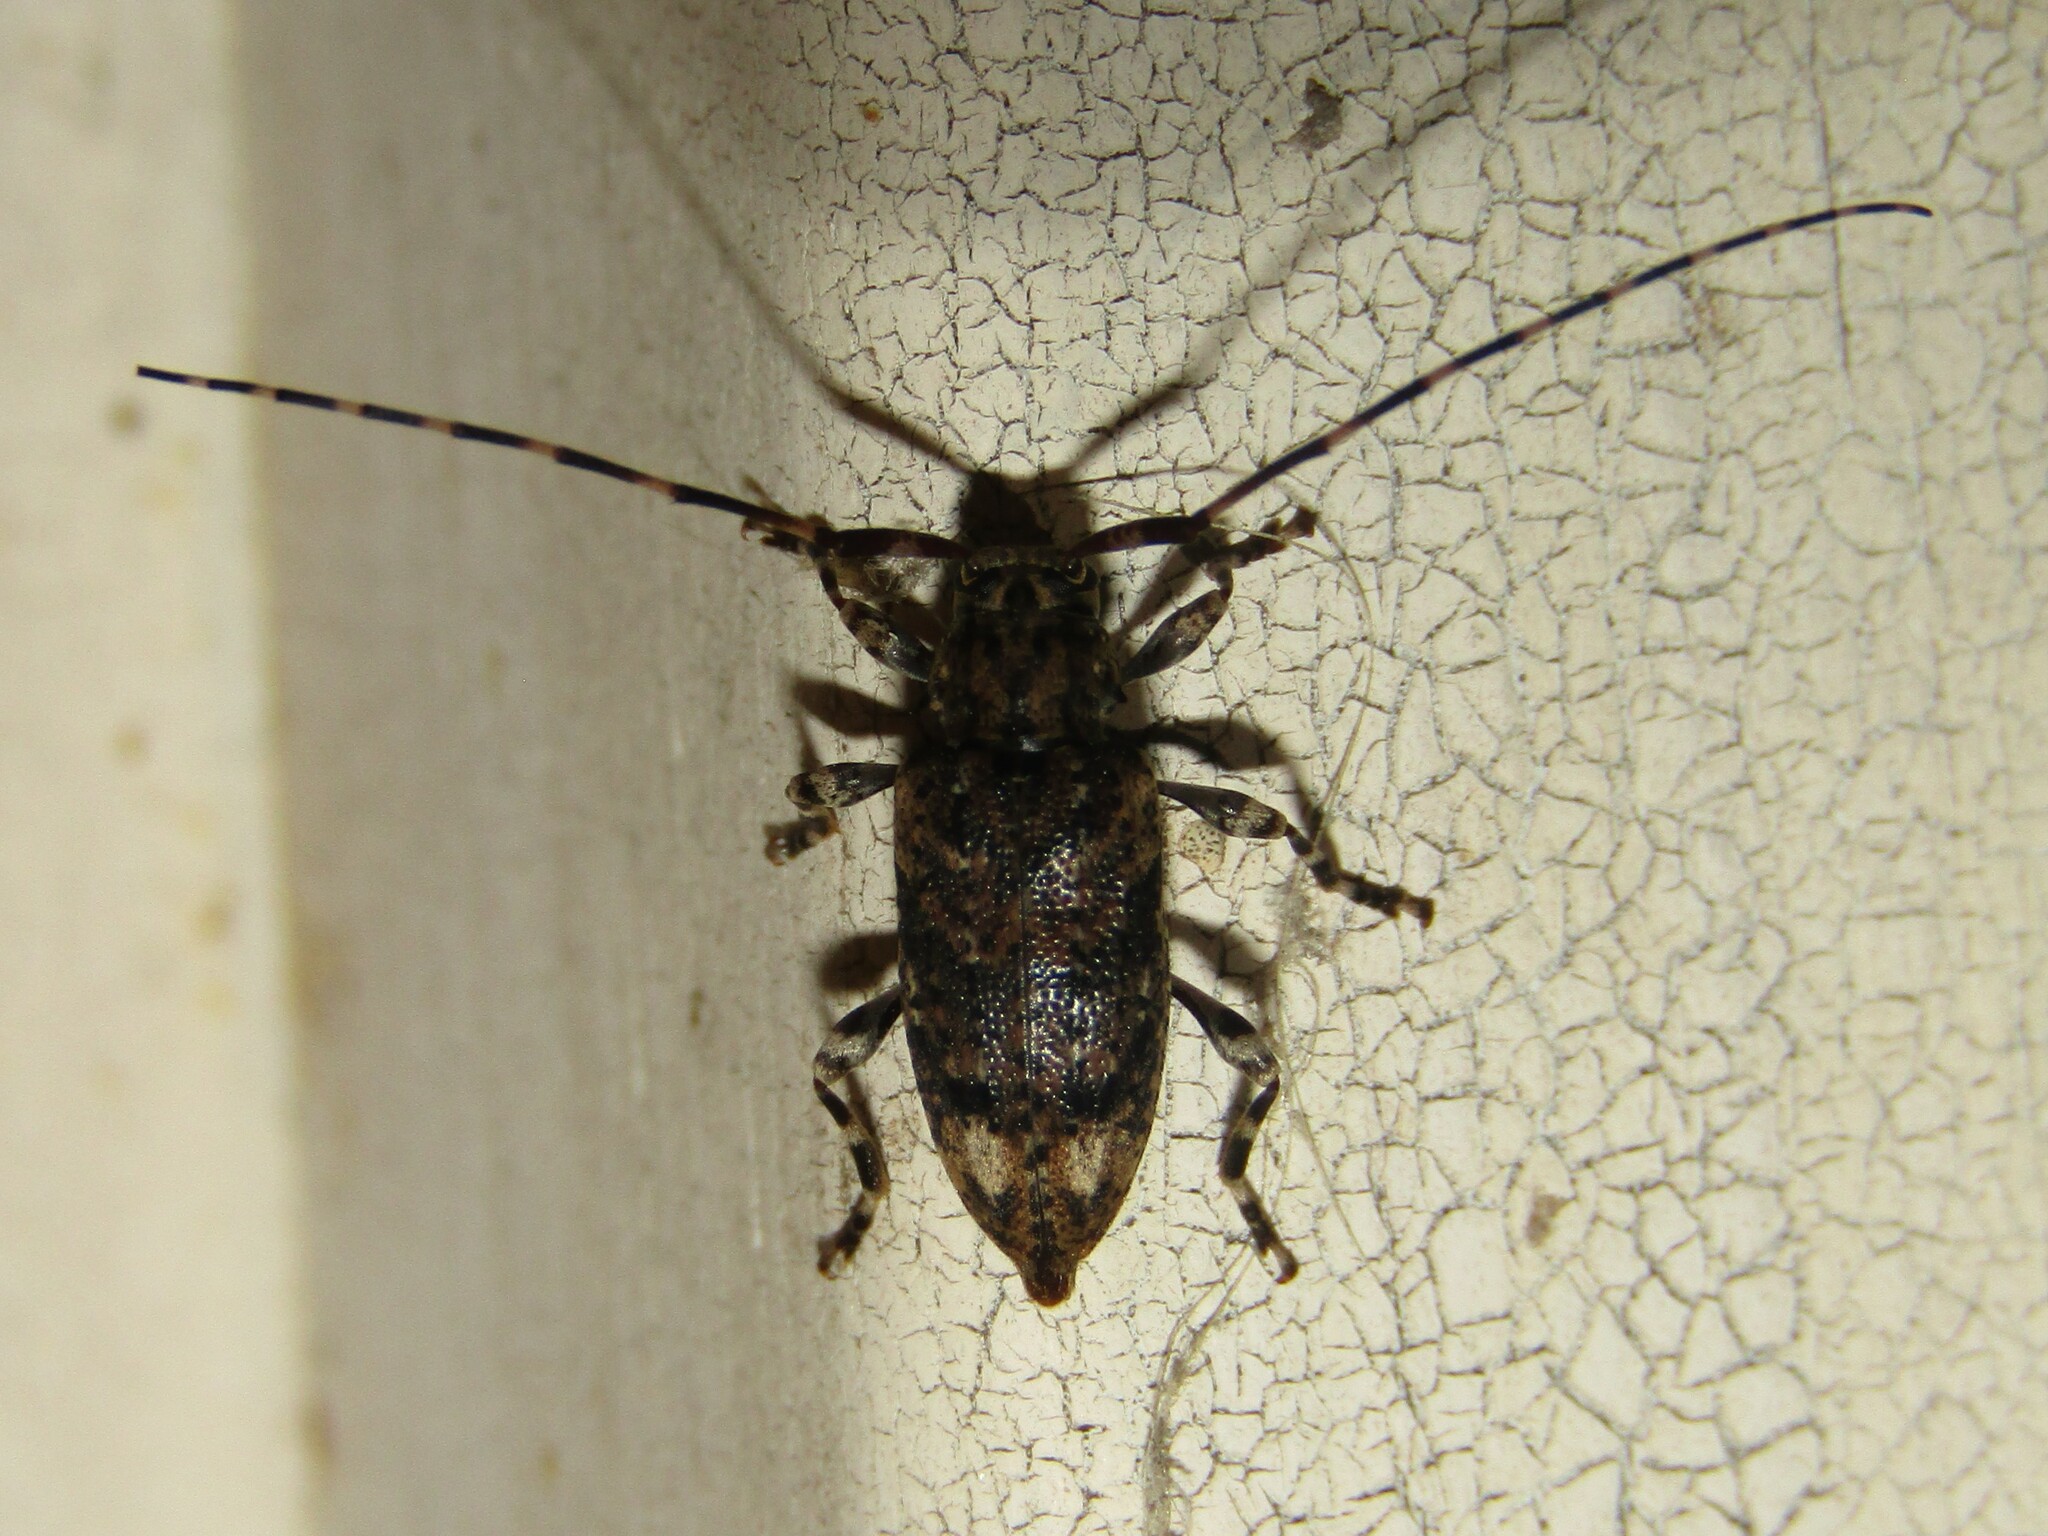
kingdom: Animalia
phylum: Arthropoda
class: Insecta
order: Coleoptera
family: Cerambycidae
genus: Astyleiopus
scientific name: Astyleiopus variegatus
